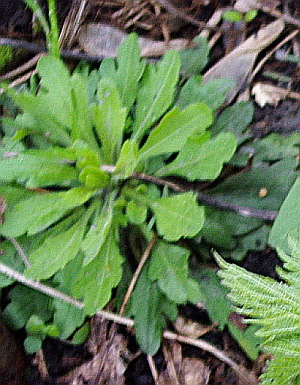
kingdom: Plantae
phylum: Tracheophyta
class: Magnoliopsida
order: Asterales
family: Asteraceae
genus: Erigeron
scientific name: Erigeron canadensis
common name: Canadian fleabane
